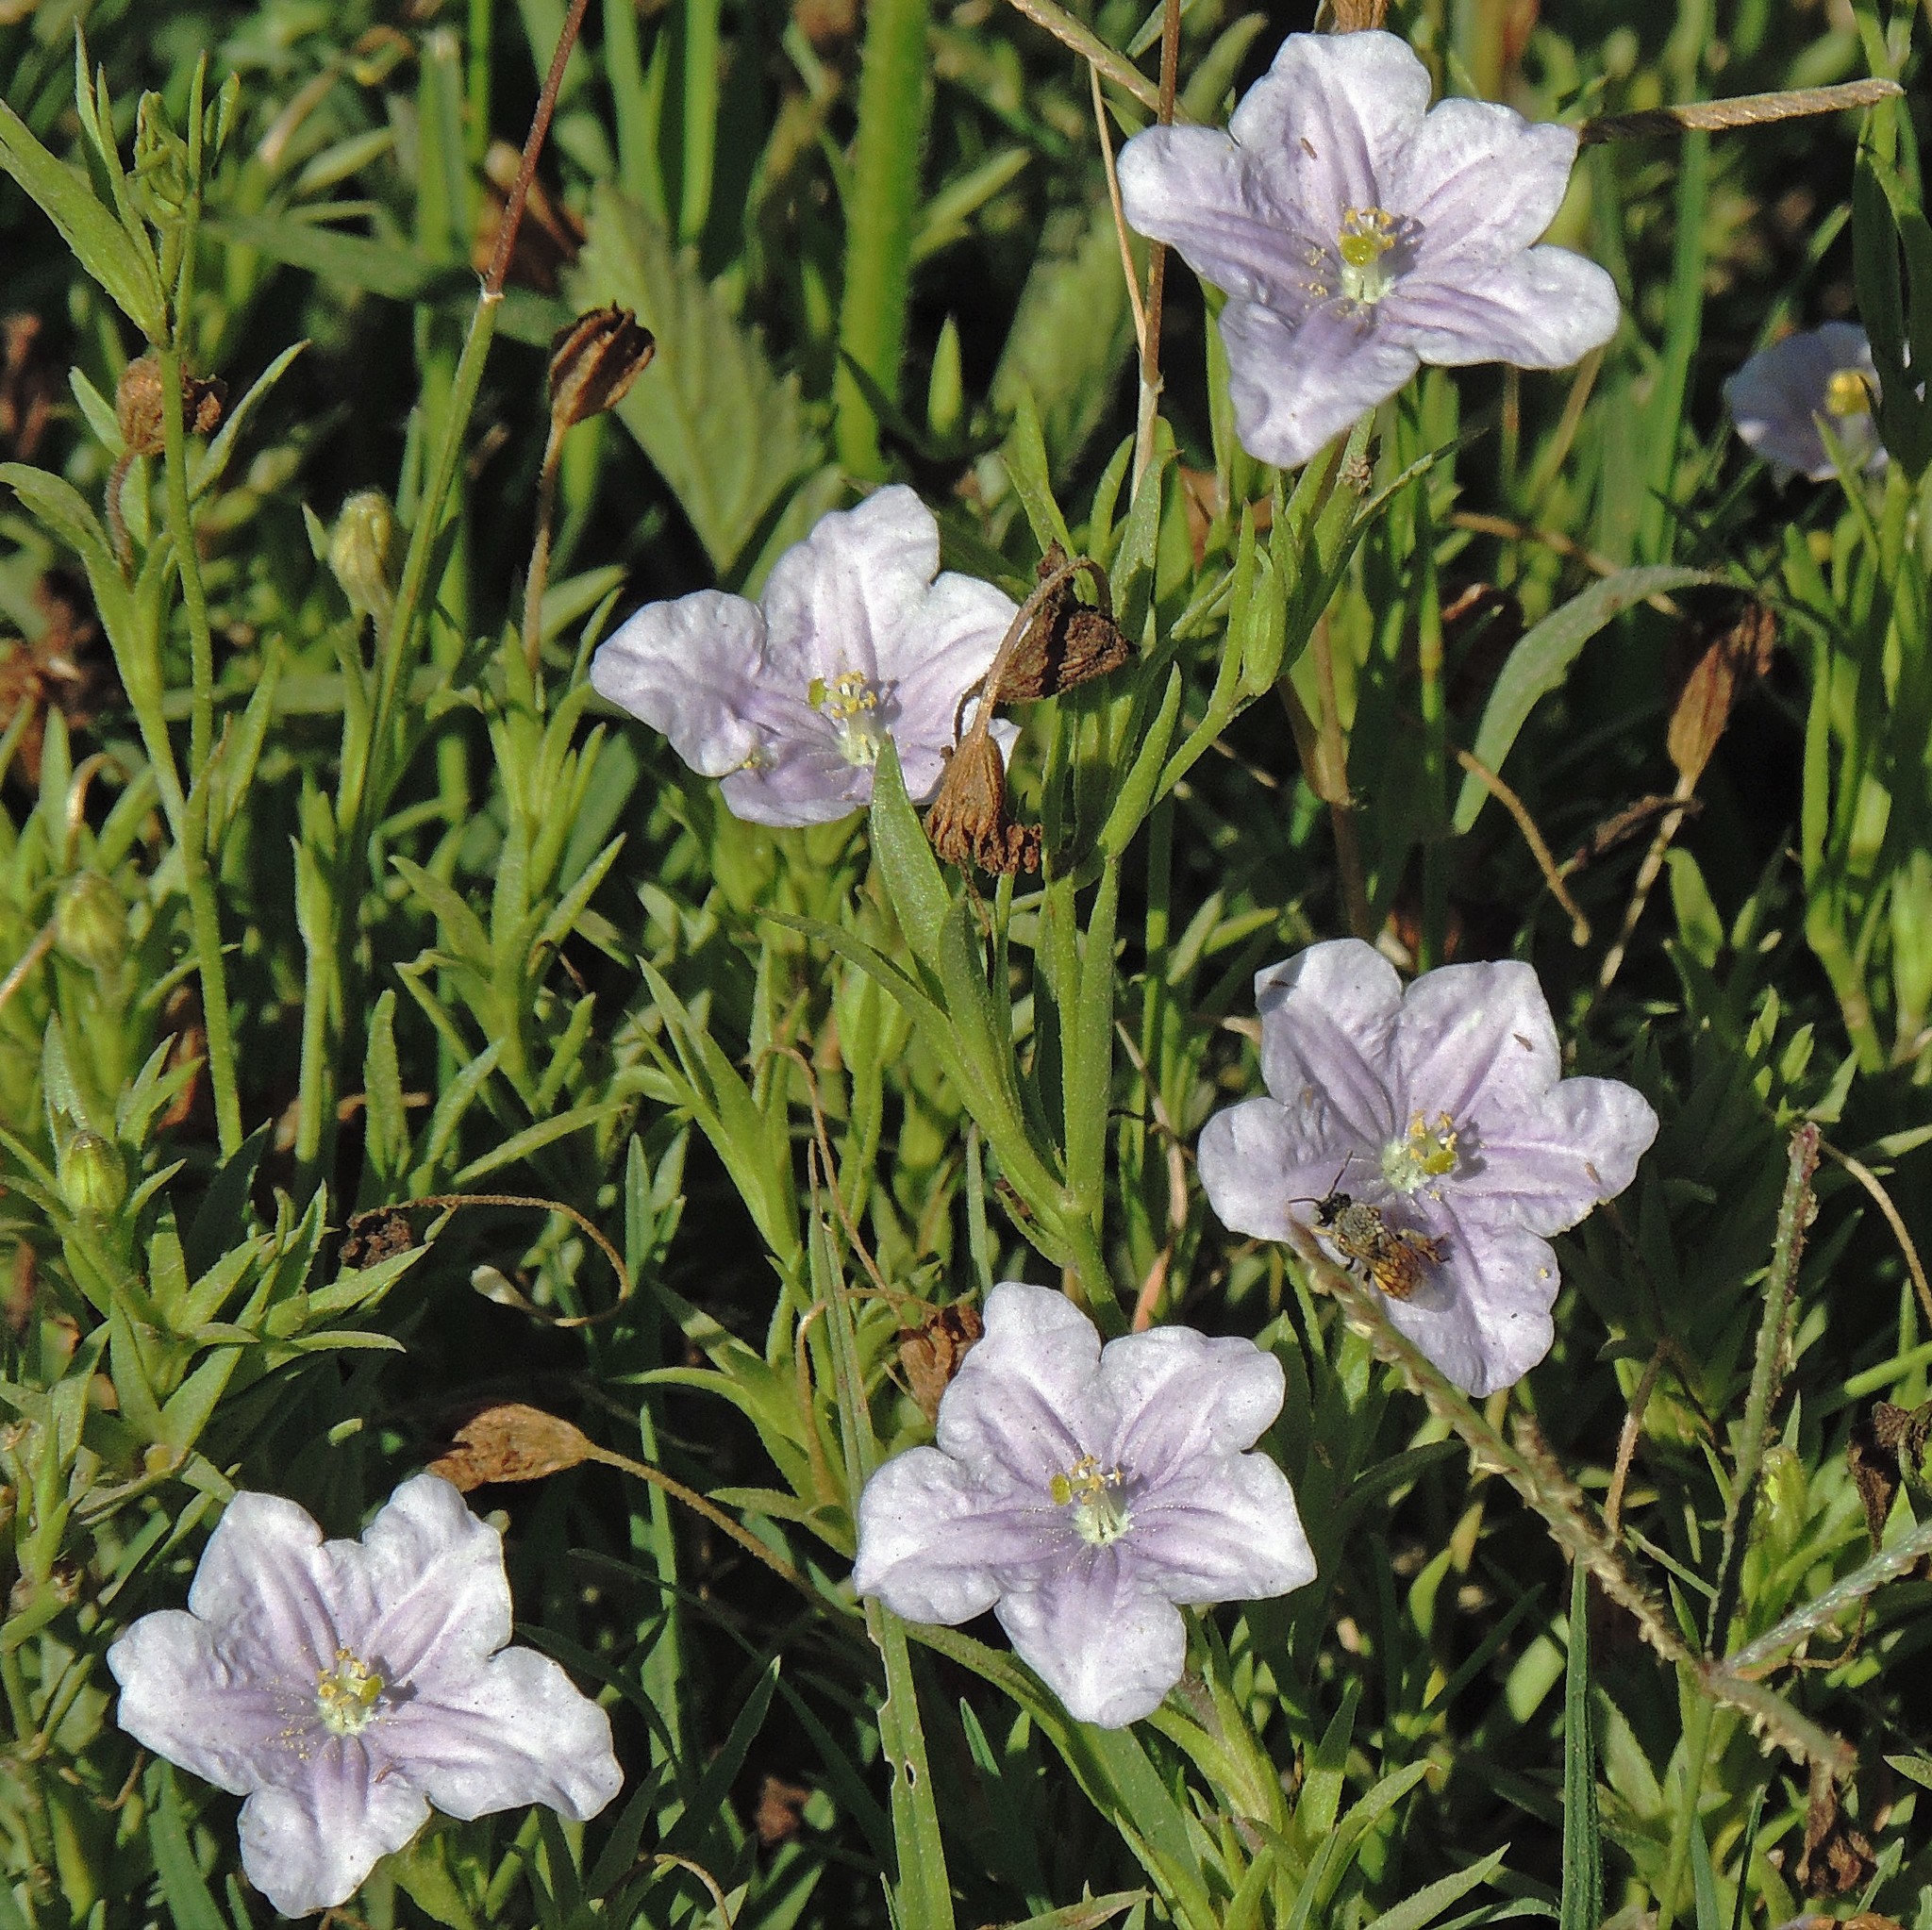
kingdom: Plantae
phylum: Tracheophyta
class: Magnoliopsida
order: Solanales
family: Solanaceae
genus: Nierembergia
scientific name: Nierembergia aristata
